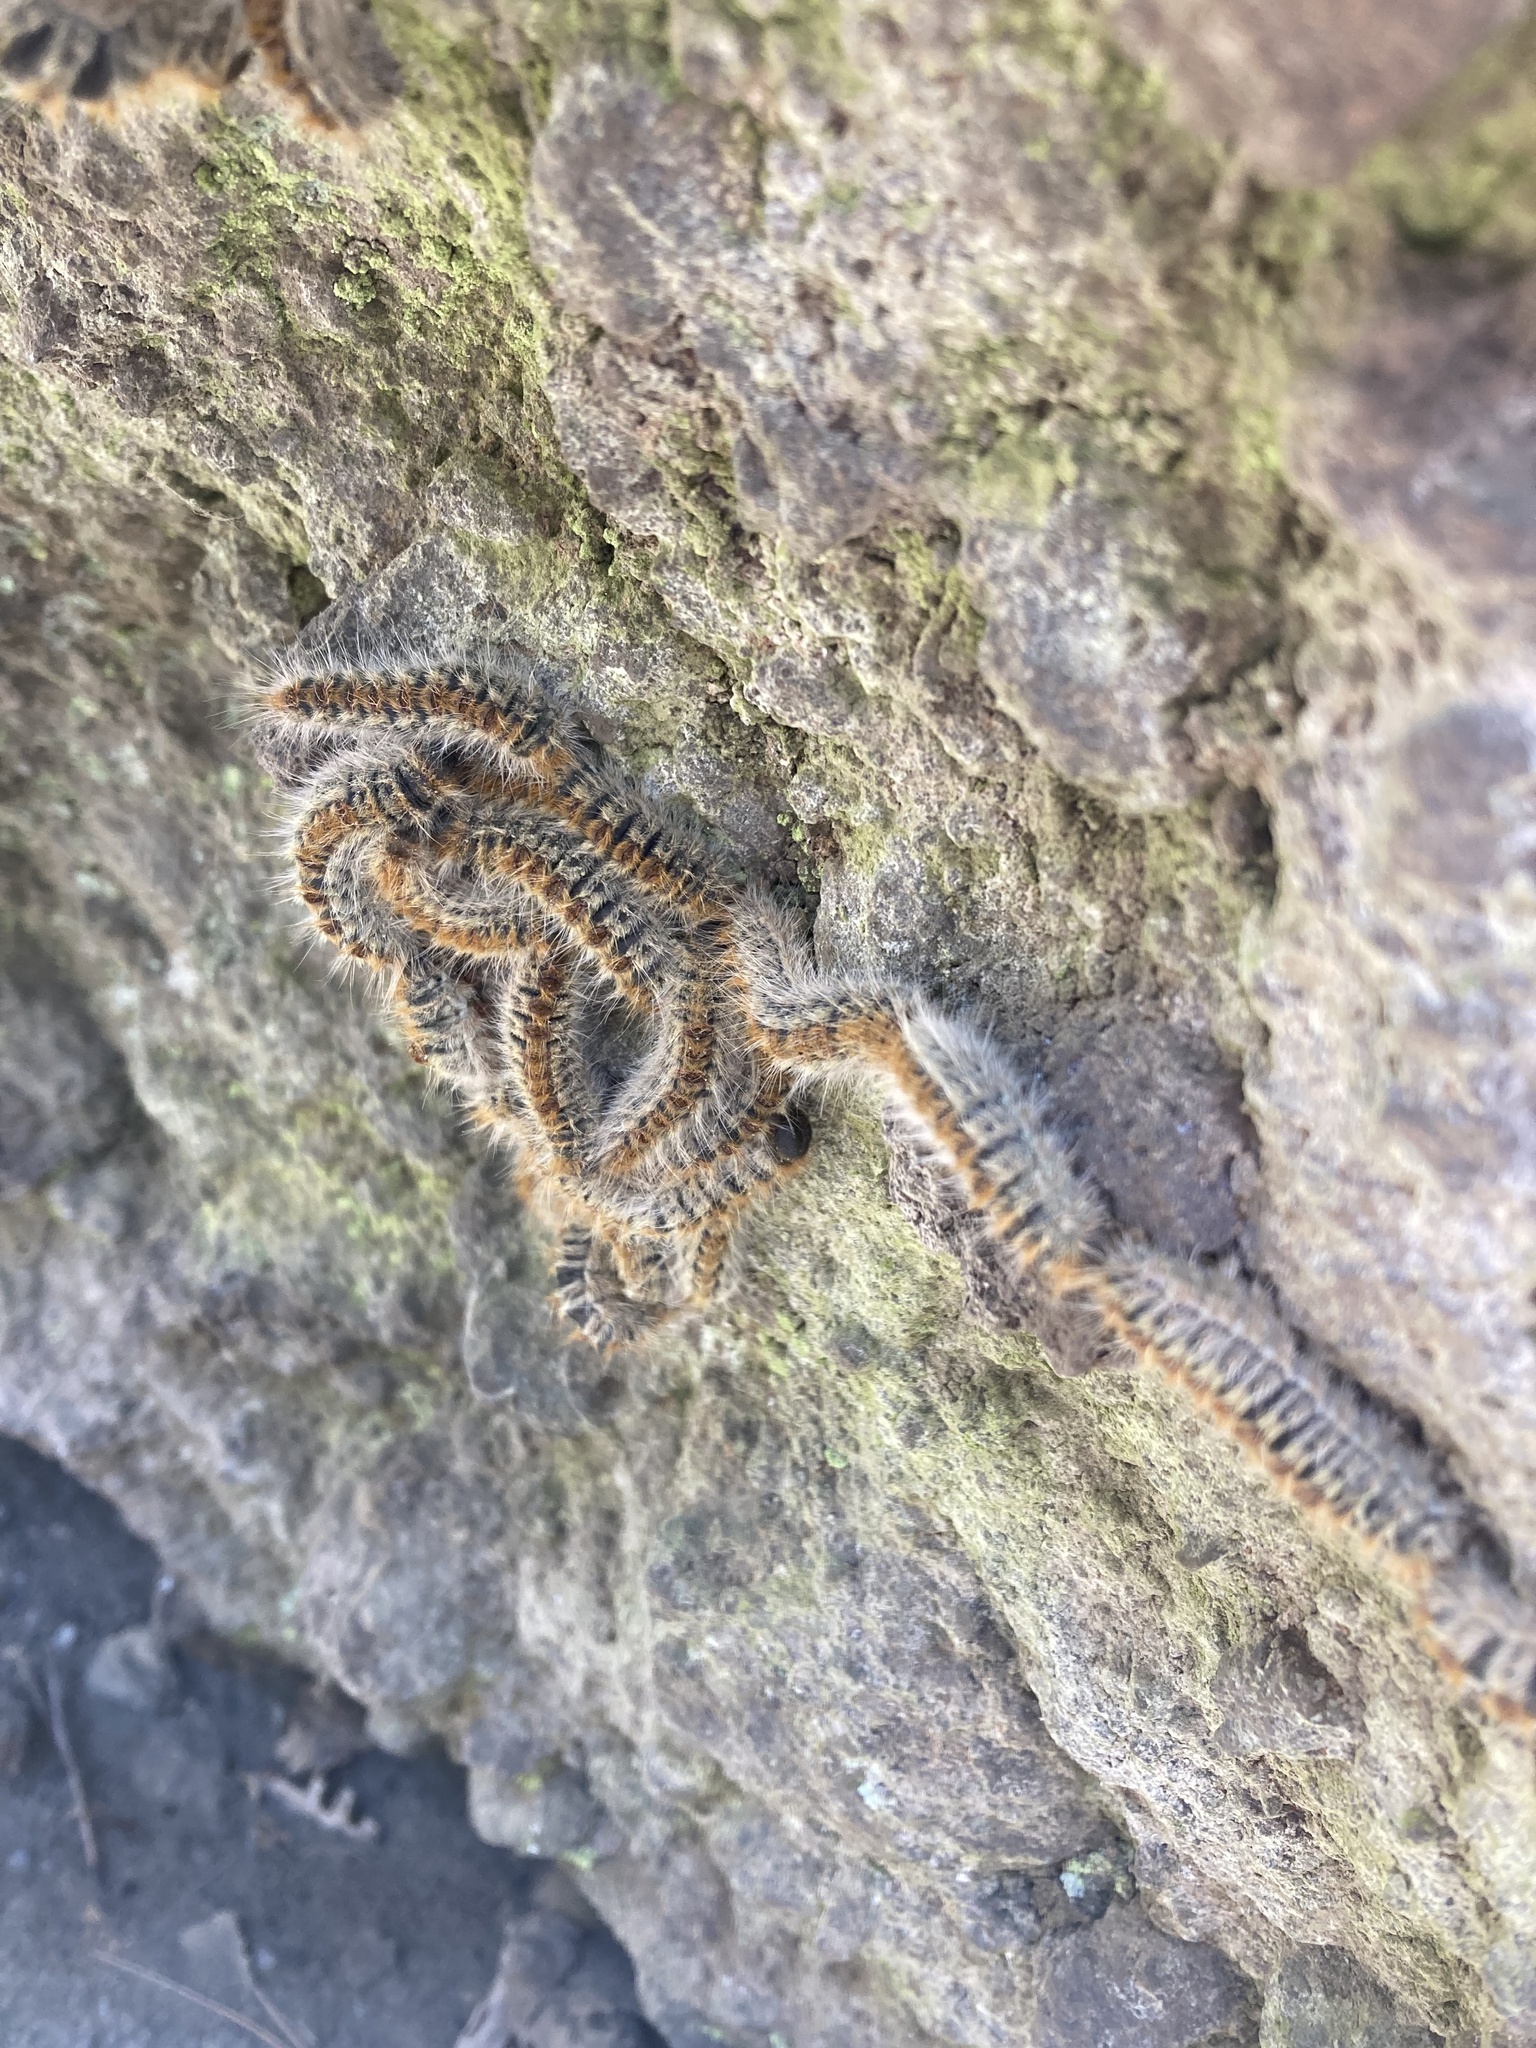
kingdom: Animalia
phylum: Arthropoda
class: Insecta
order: Lepidoptera
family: Notodontidae
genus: Thaumetopoea
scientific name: Thaumetopoea pityocampa
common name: Pine processionary
